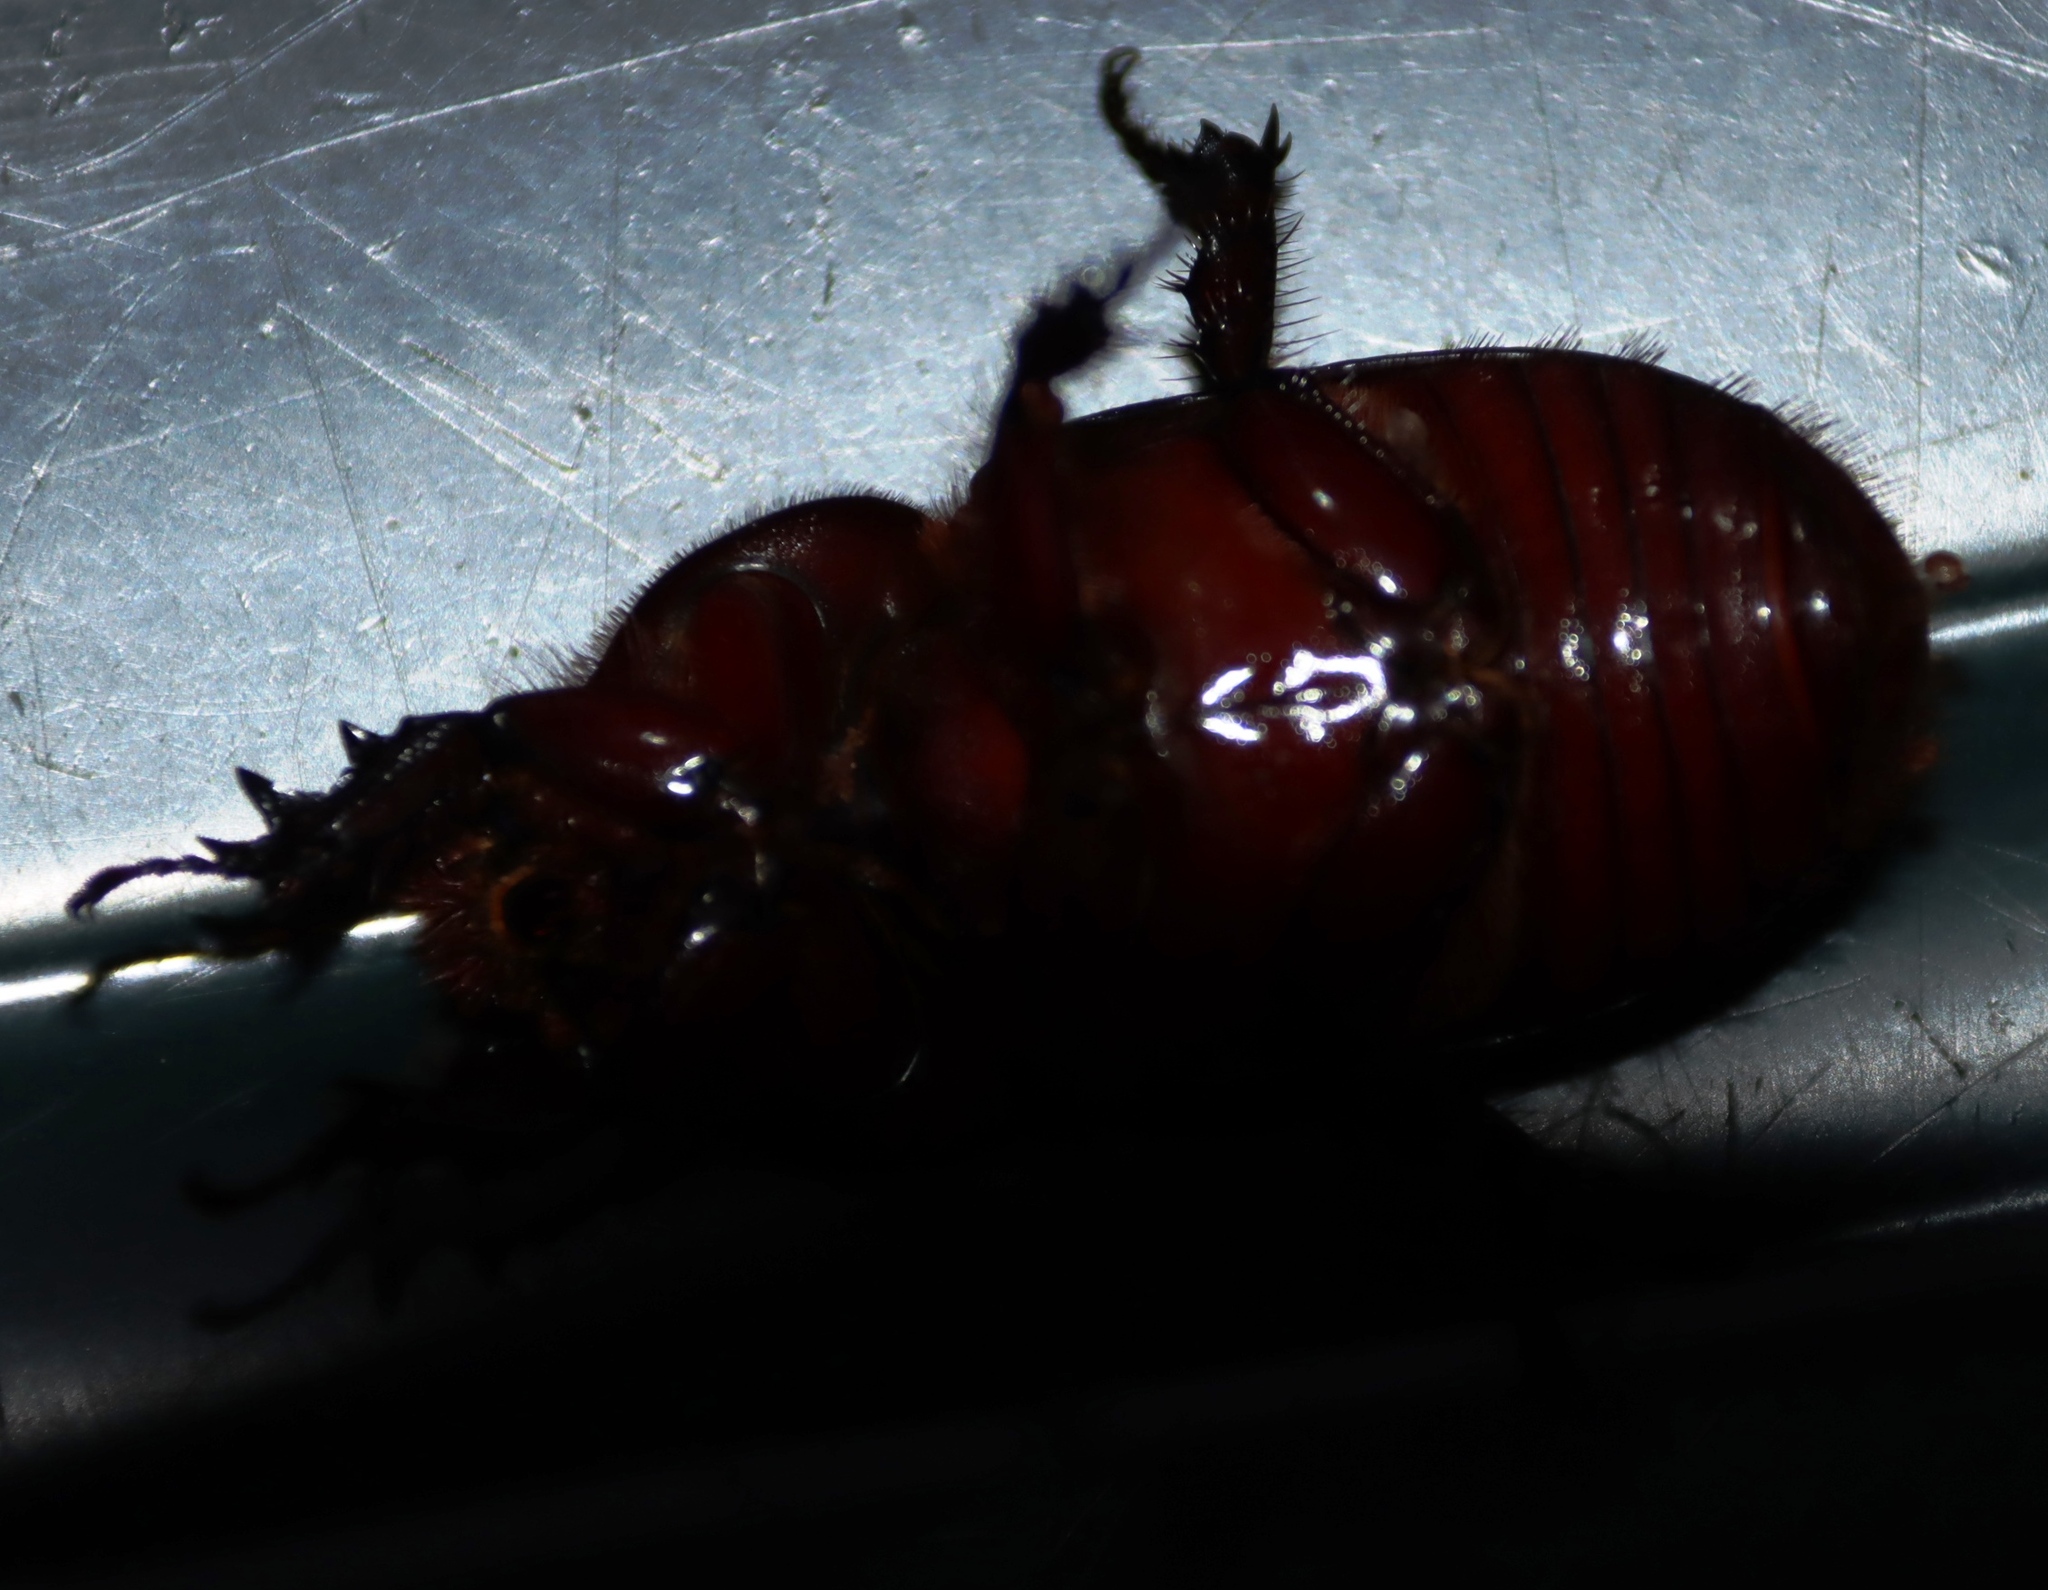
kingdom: Animalia
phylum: Arthropoda
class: Insecta
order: Coleoptera
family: Scarabaeidae
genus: Oryctes
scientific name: Oryctes monoceros
